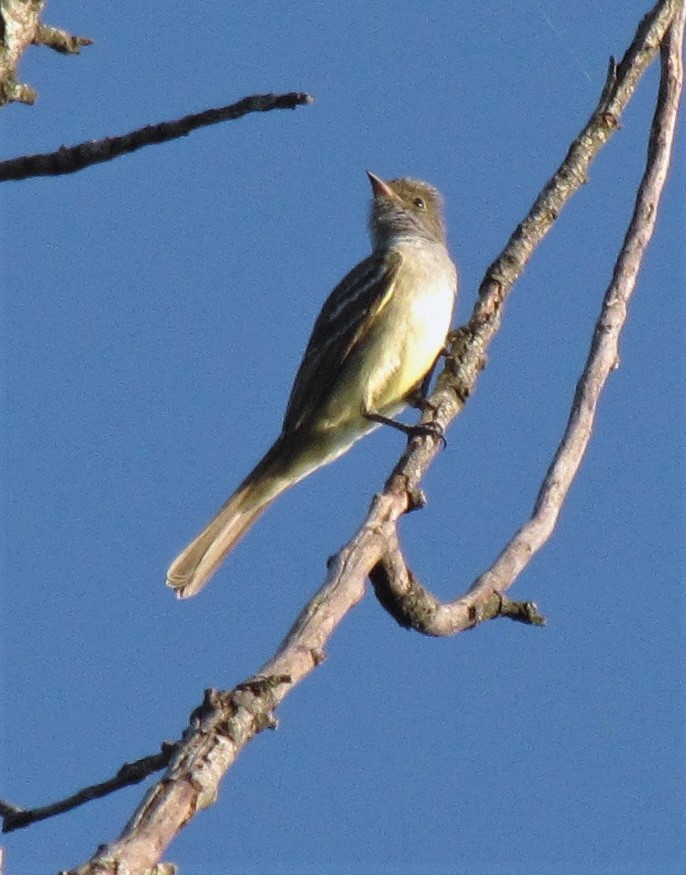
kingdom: Animalia
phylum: Chordata
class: Aves
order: Passeriformes
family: Tyrannidae
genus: Myiarchus
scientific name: Myiarchus swainsoni
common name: Swainson's flycatcher
